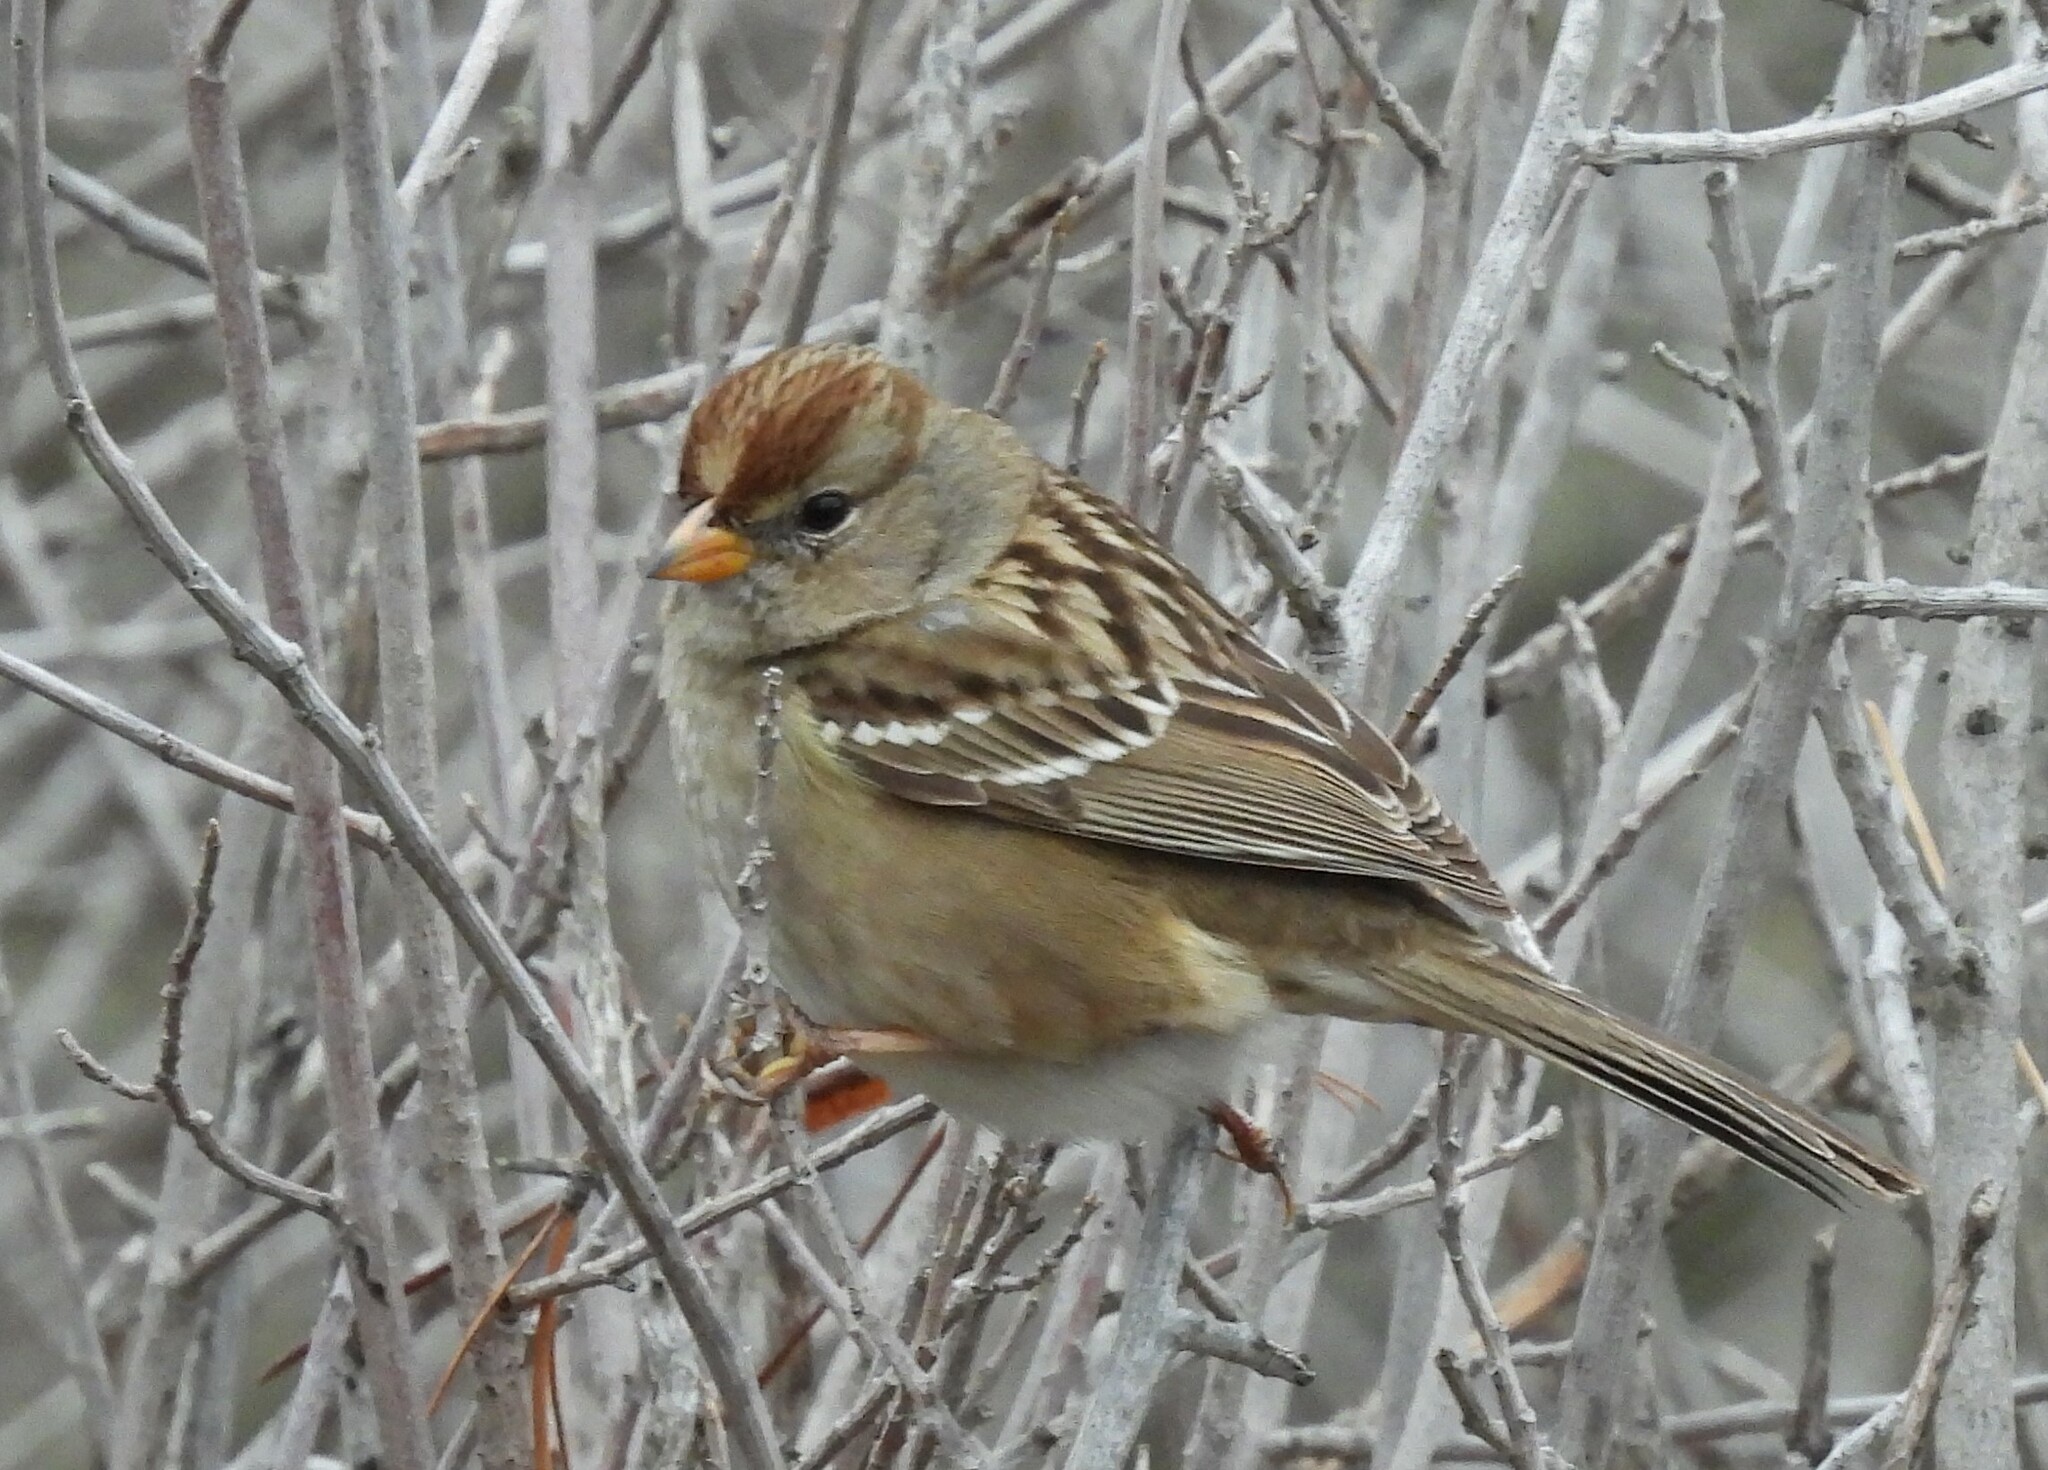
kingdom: Animalia
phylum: Chordata
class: Aves
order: Passeriformes
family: Passerellidae
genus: Zonotrichia
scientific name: Zonotrichia leucophrys
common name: White-crowned sparrow
